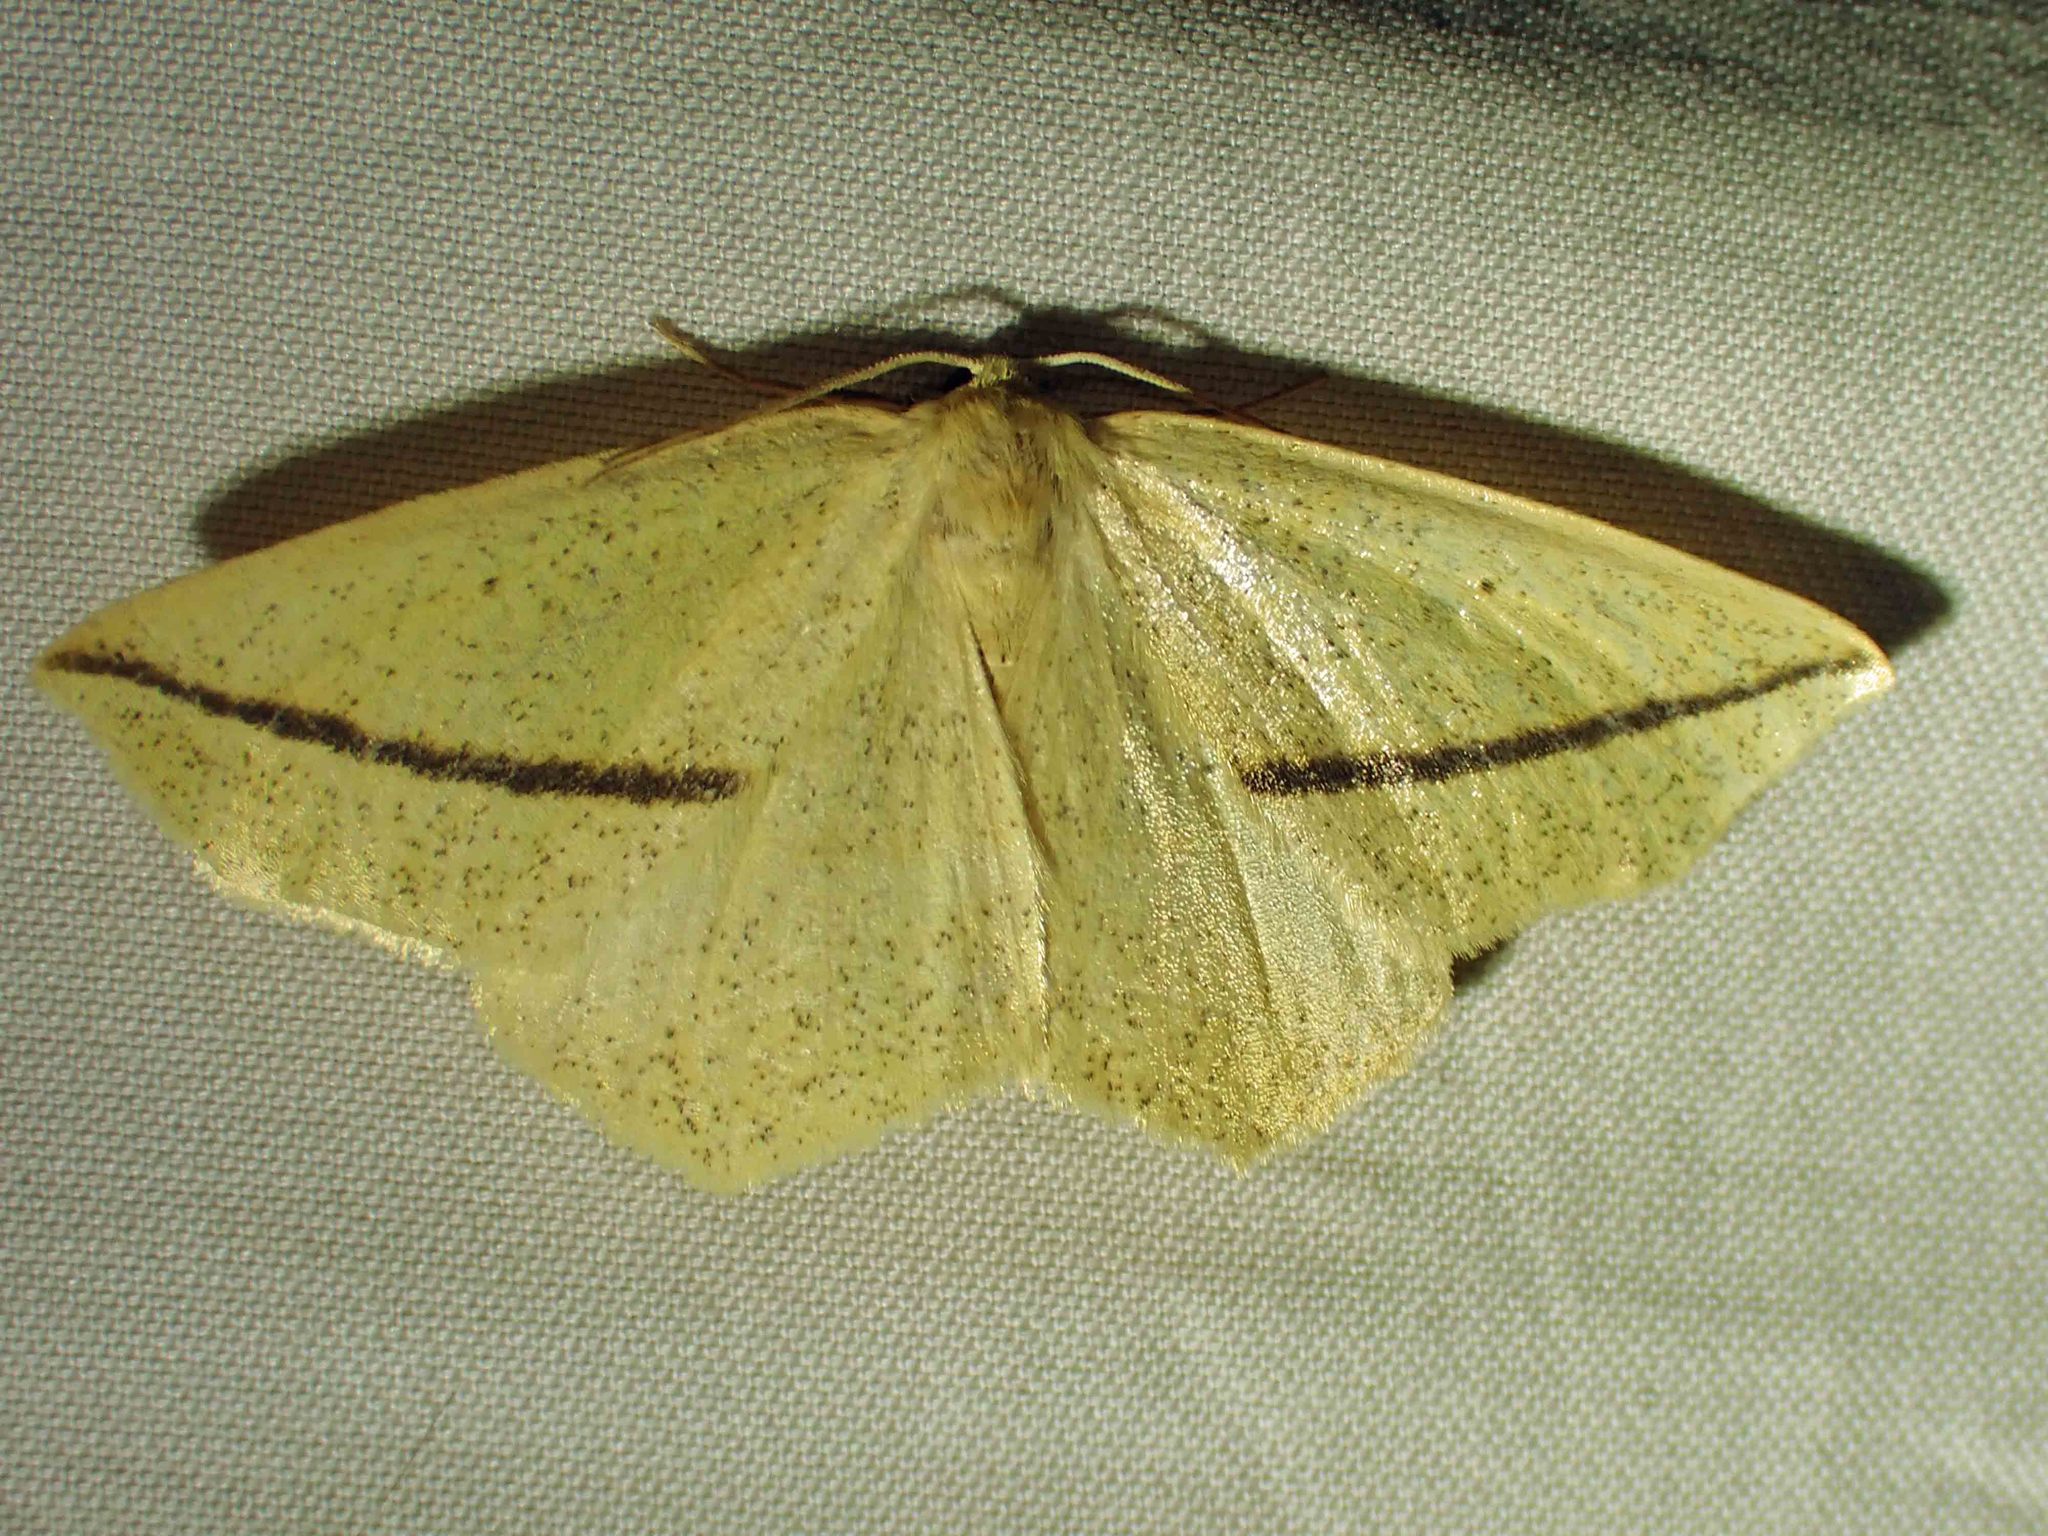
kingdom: Animalia
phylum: Arthropoda
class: Insecta
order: Lepidoptera
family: Geometridae
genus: Tetracis
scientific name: Tetracis crocallata
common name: Yellow slant-line
